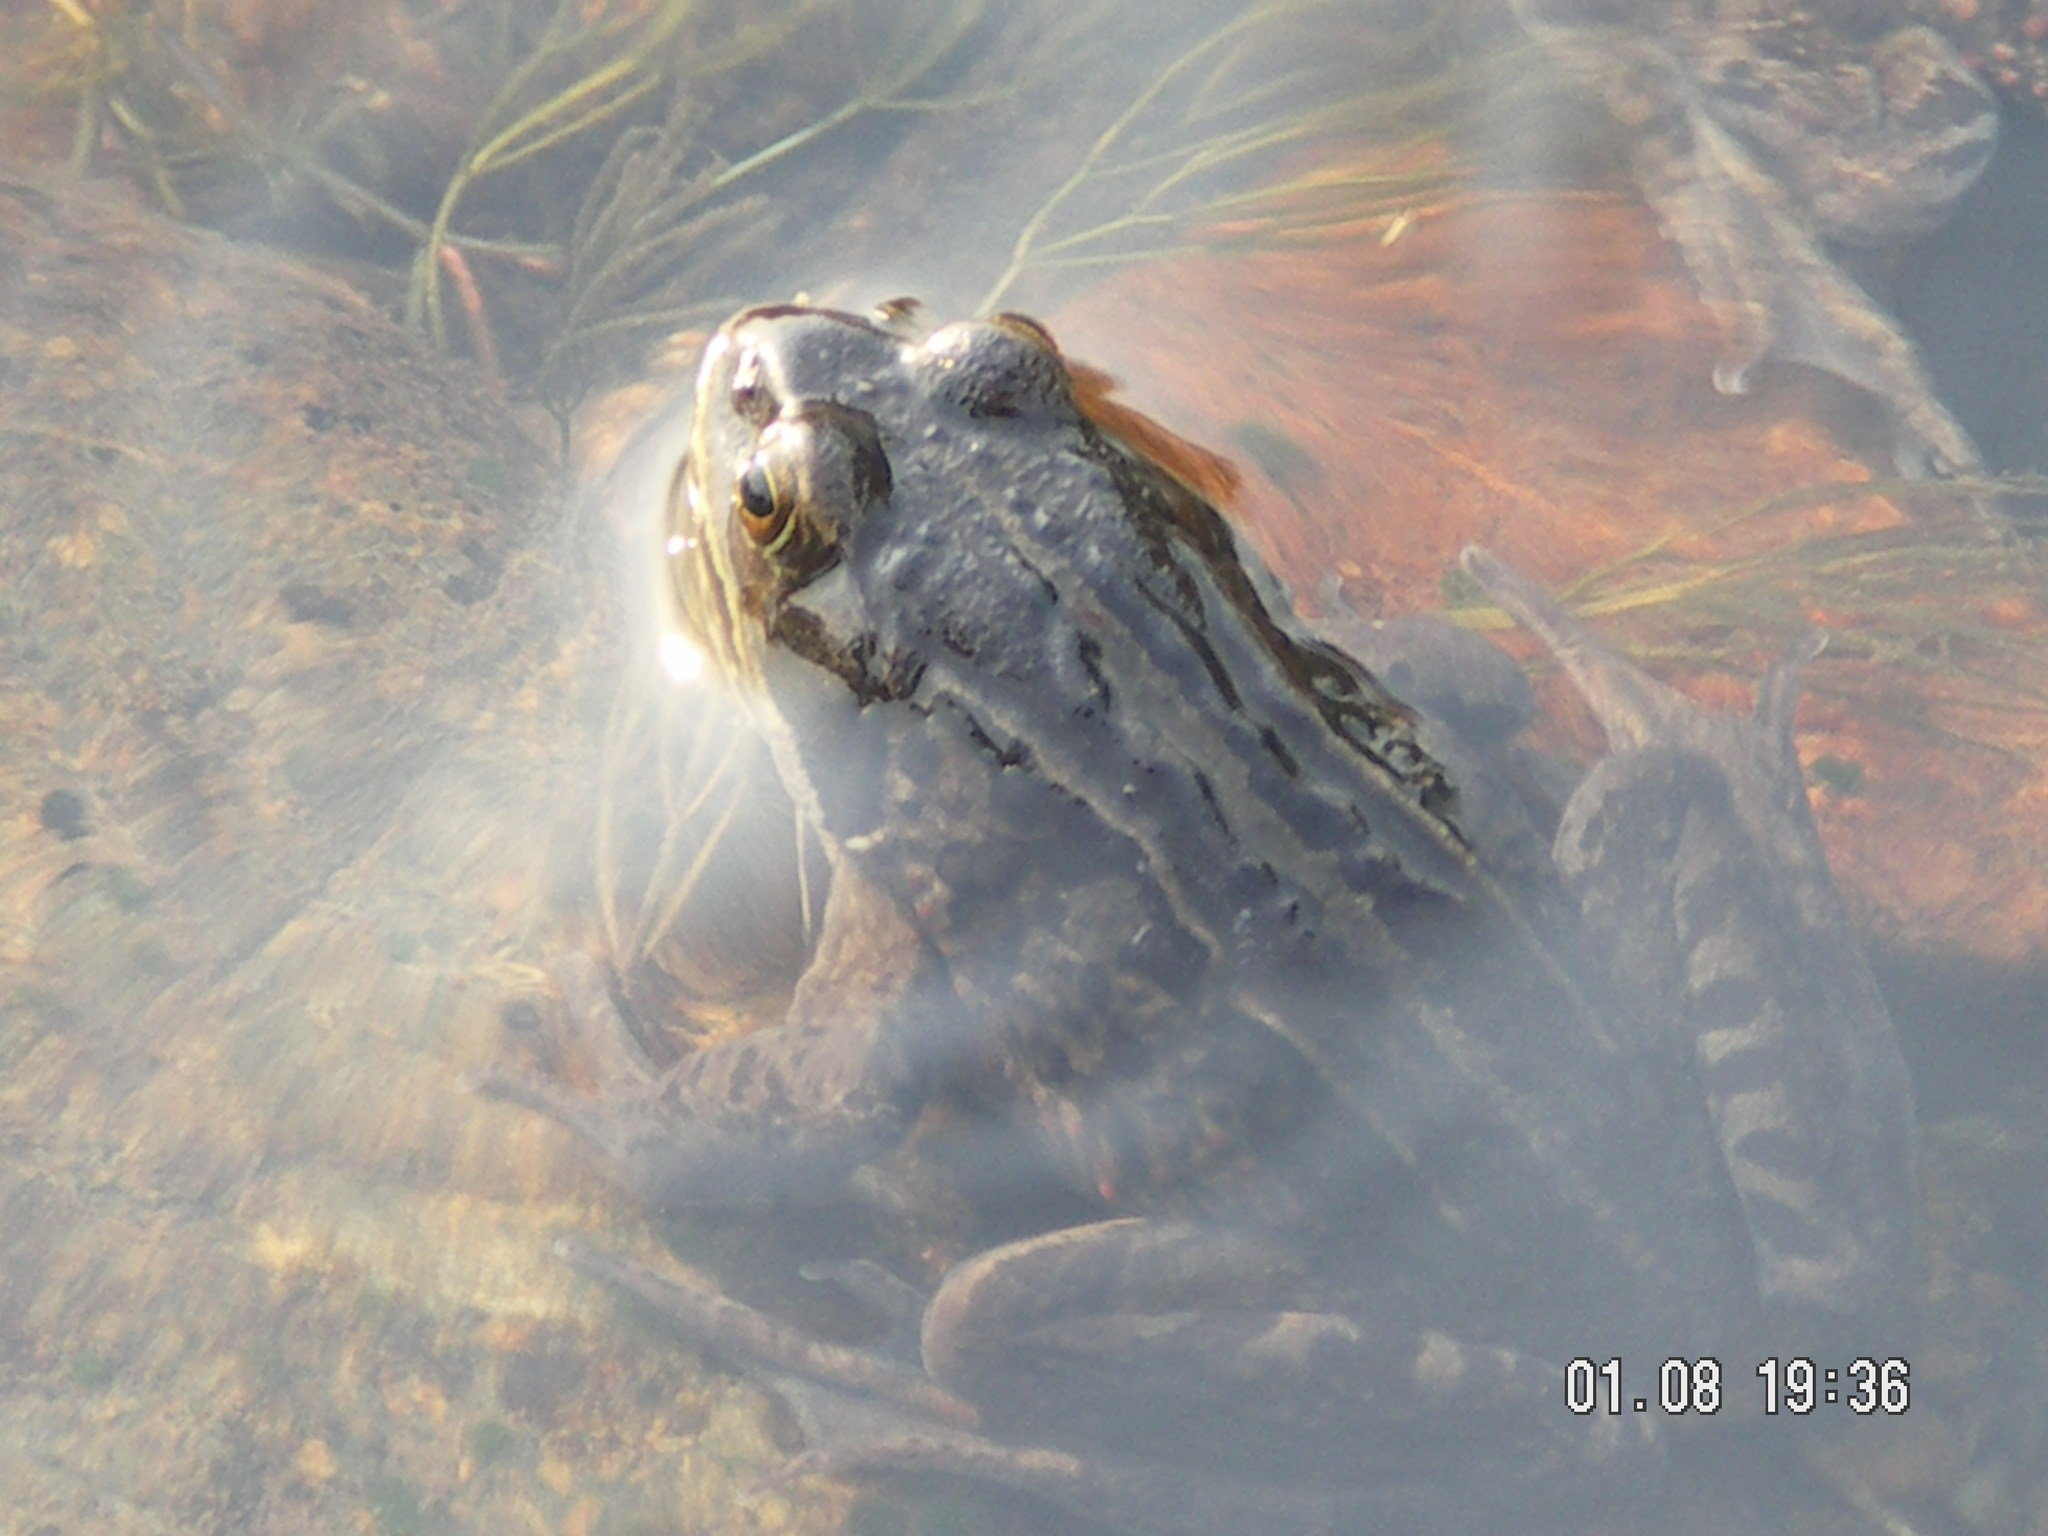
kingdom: Animalia
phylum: Chordata
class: Amphibia
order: Anura
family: Ranidae
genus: Rana
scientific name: Rana amurensis
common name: Amur brown frog
